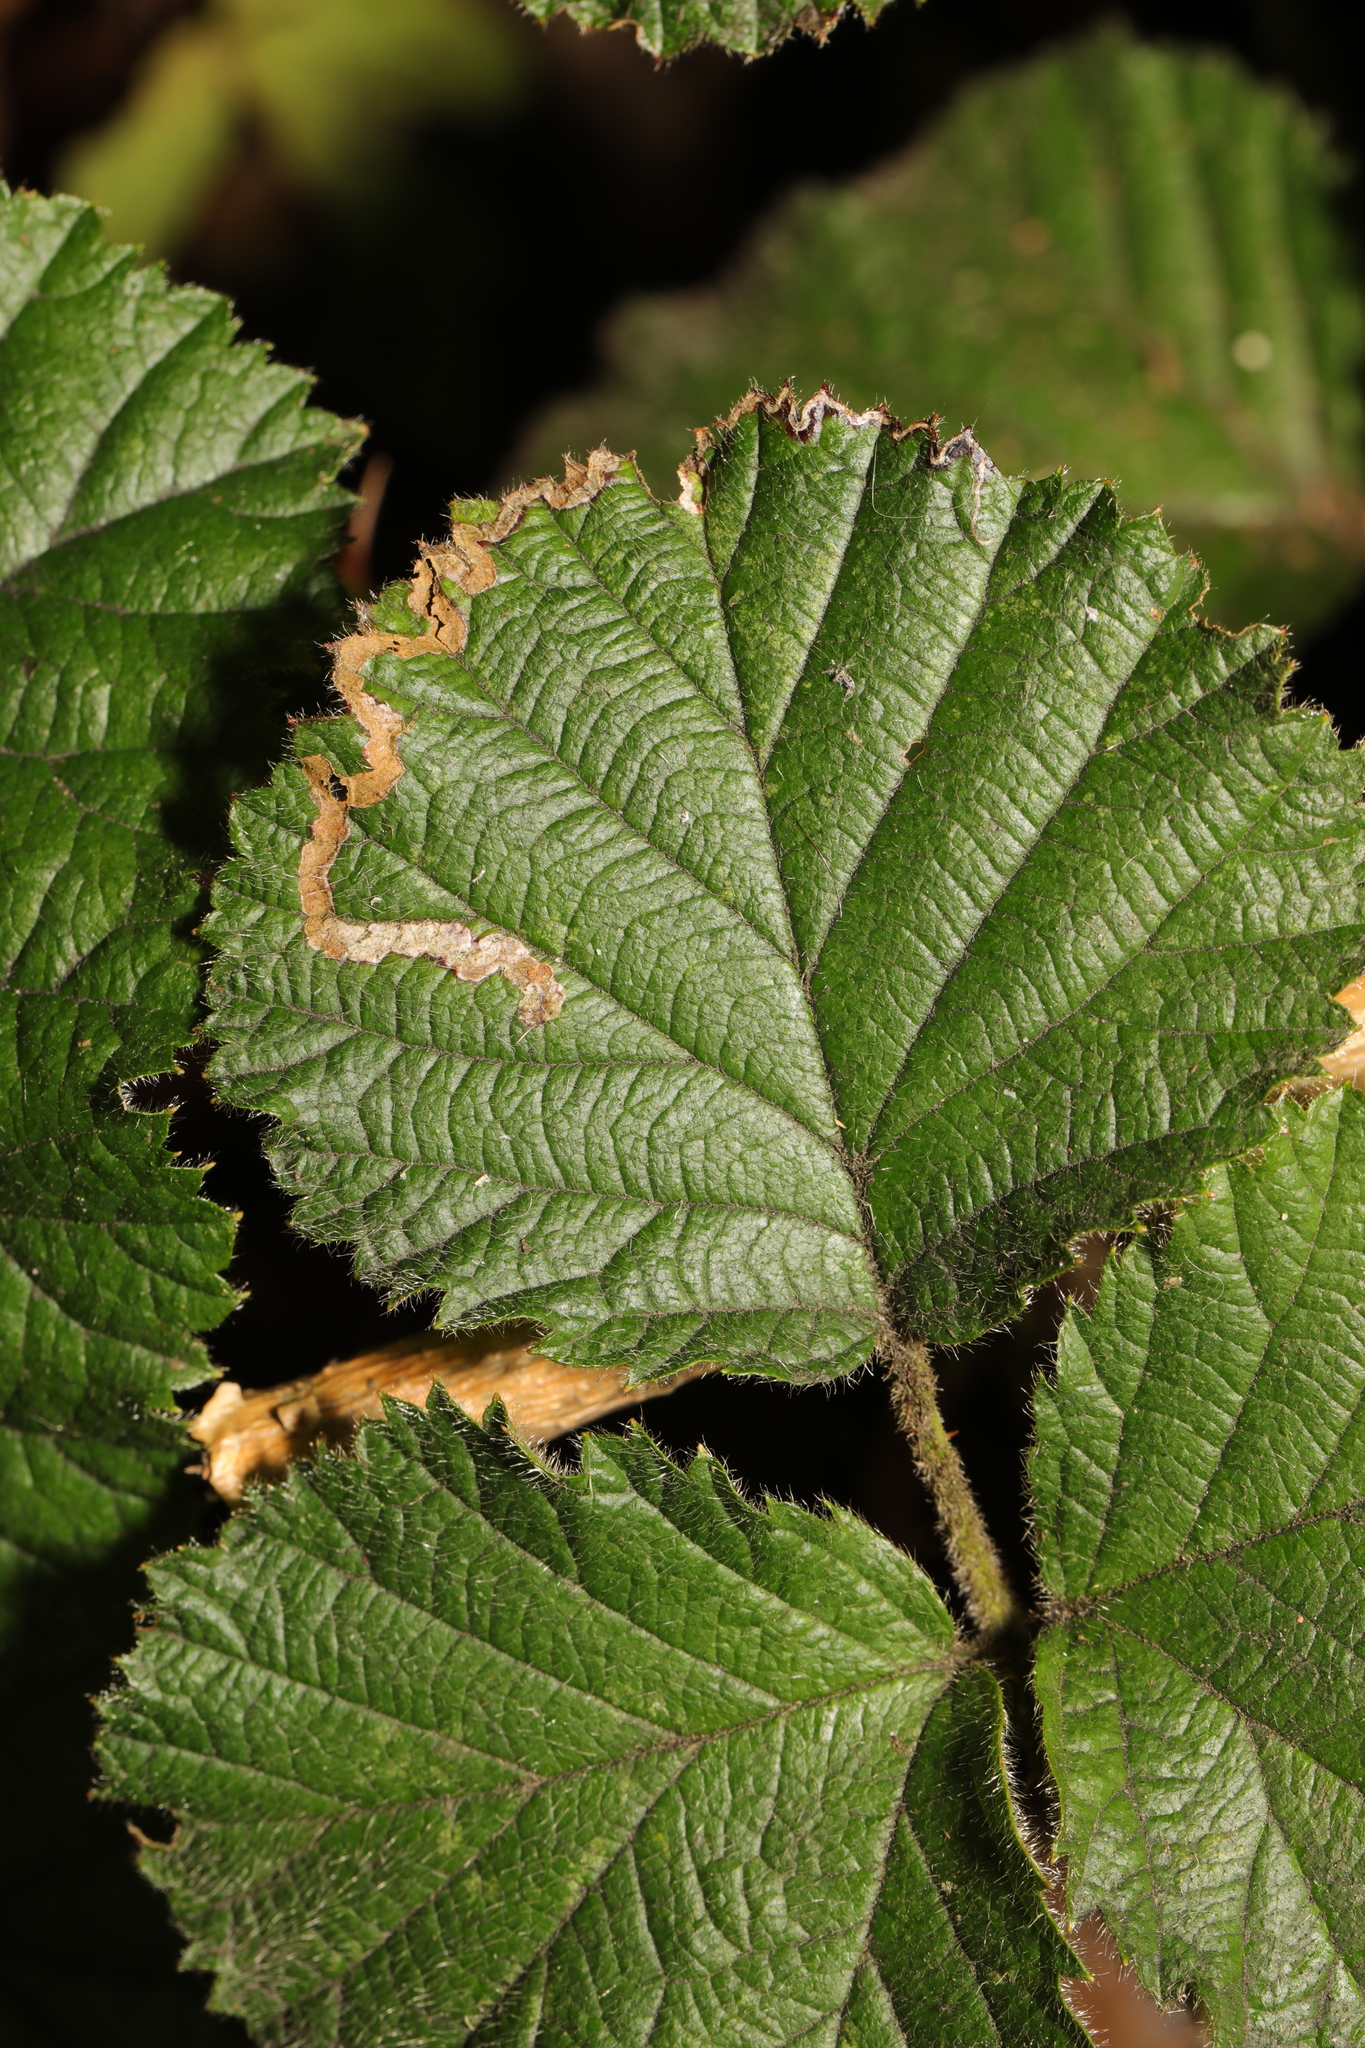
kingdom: Animalia
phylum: Arthropoda
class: Insecta
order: Lepidoptera
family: Nepticulidae
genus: Stigmella
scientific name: Stigmella aurella
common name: Golden pigmy
